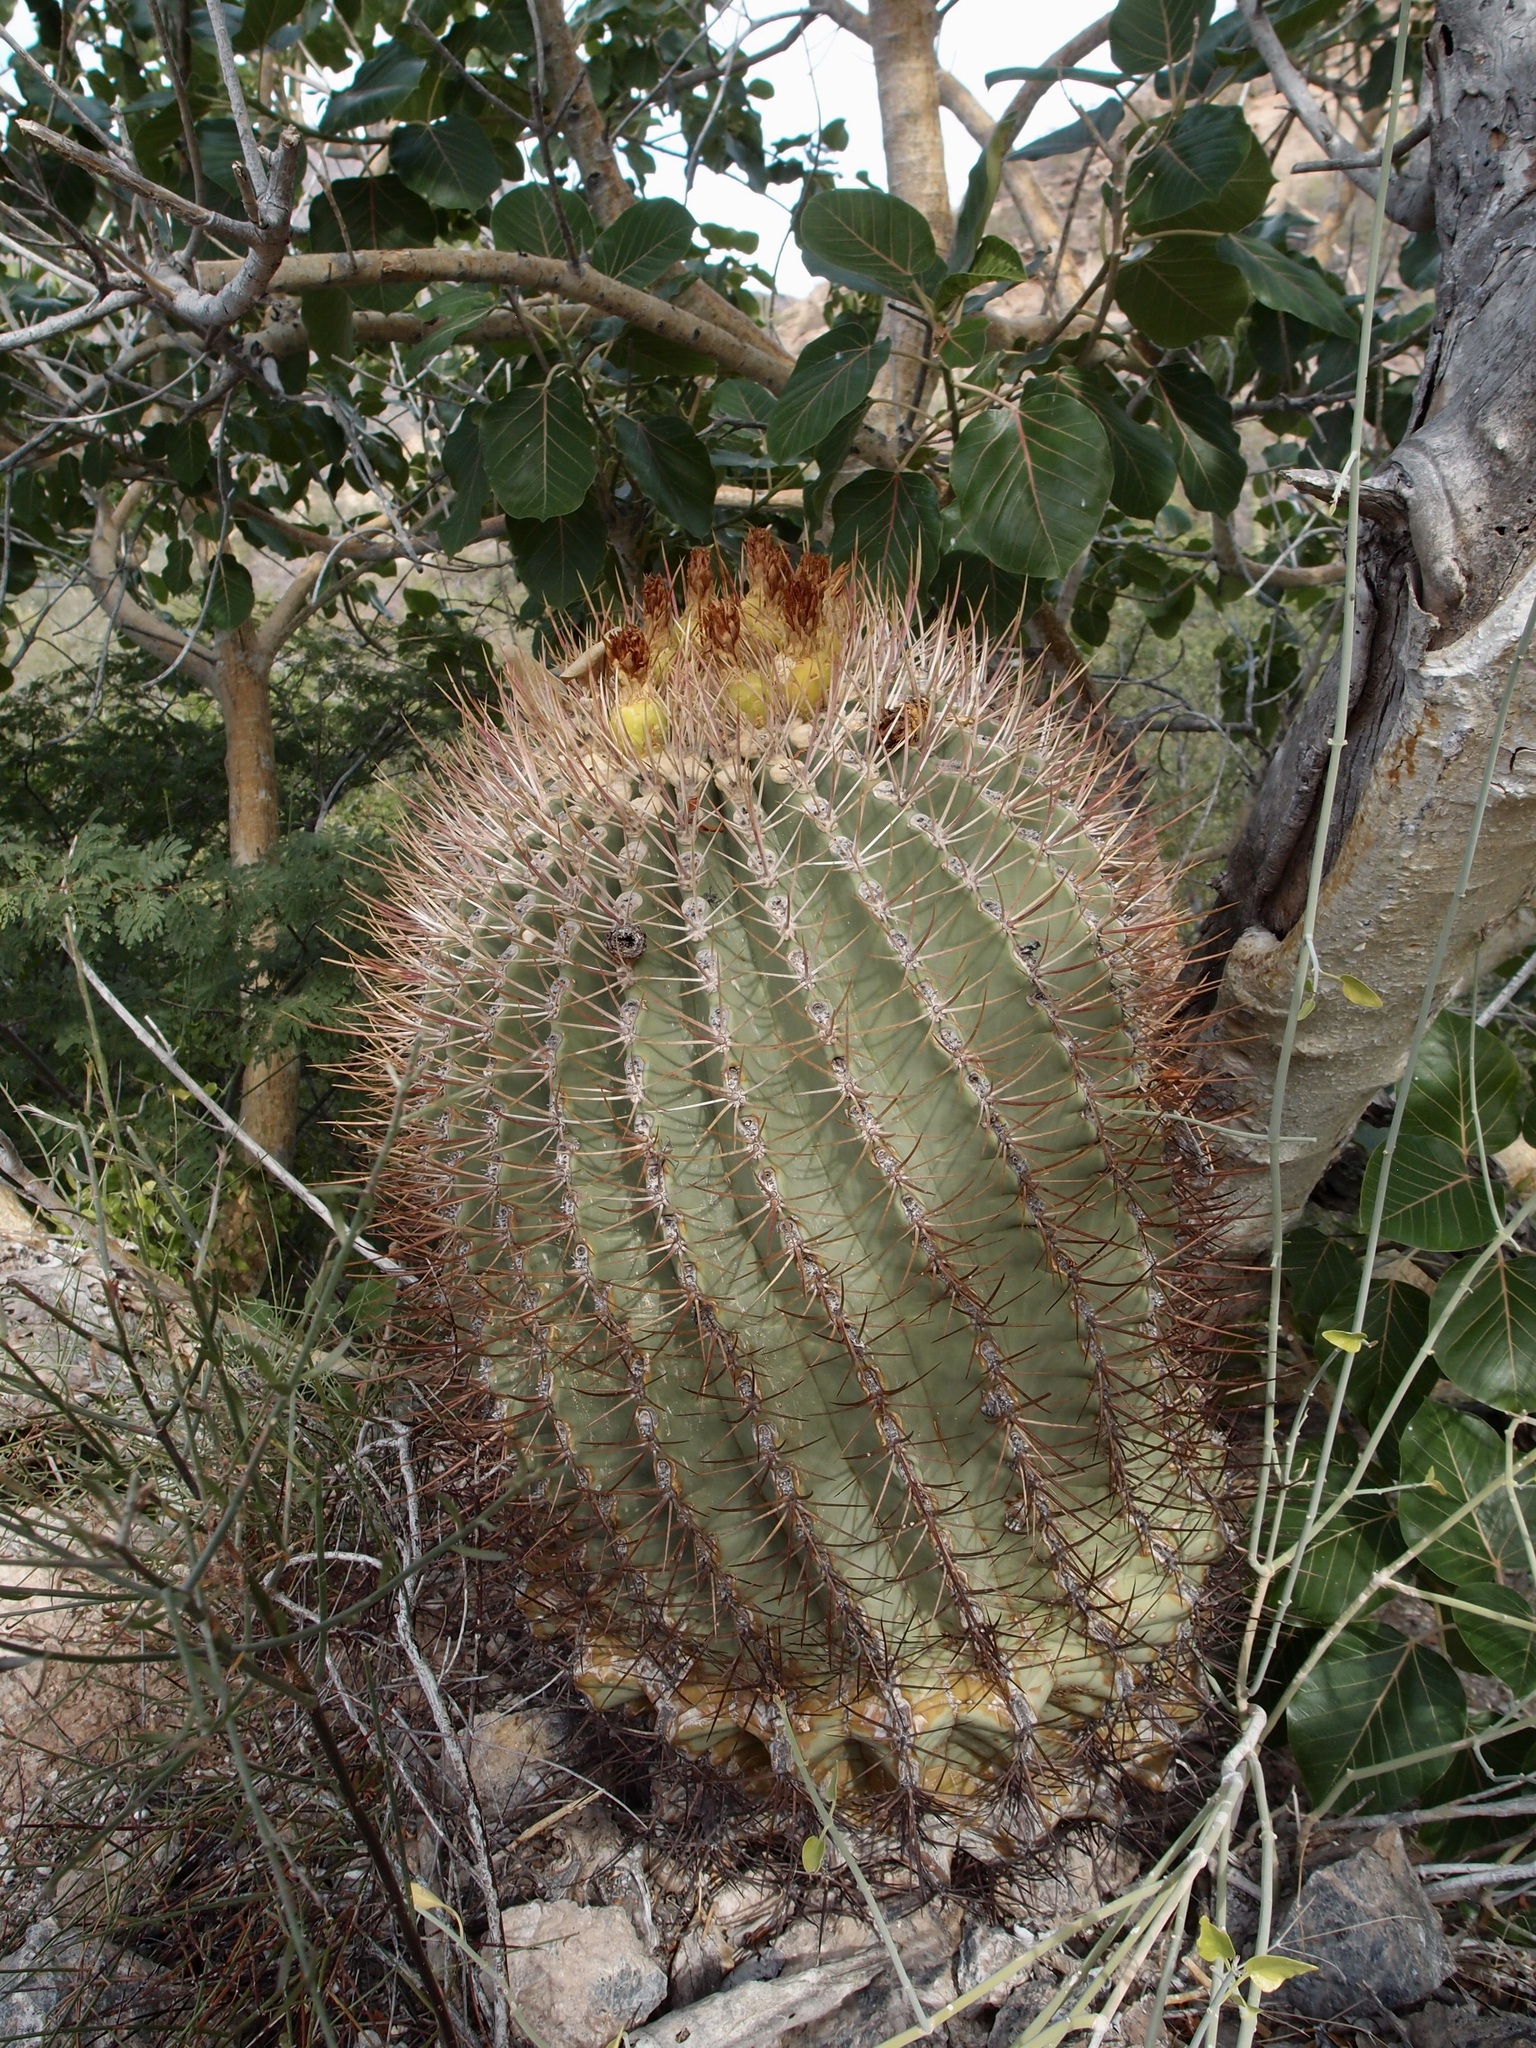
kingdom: Plantae
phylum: Tracheophyta
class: Magnoliopsida
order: Caryophyllales
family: Cactaceae
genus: Ferocactus
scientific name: Ferocactus emoryi
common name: Emory's barrel cactus
